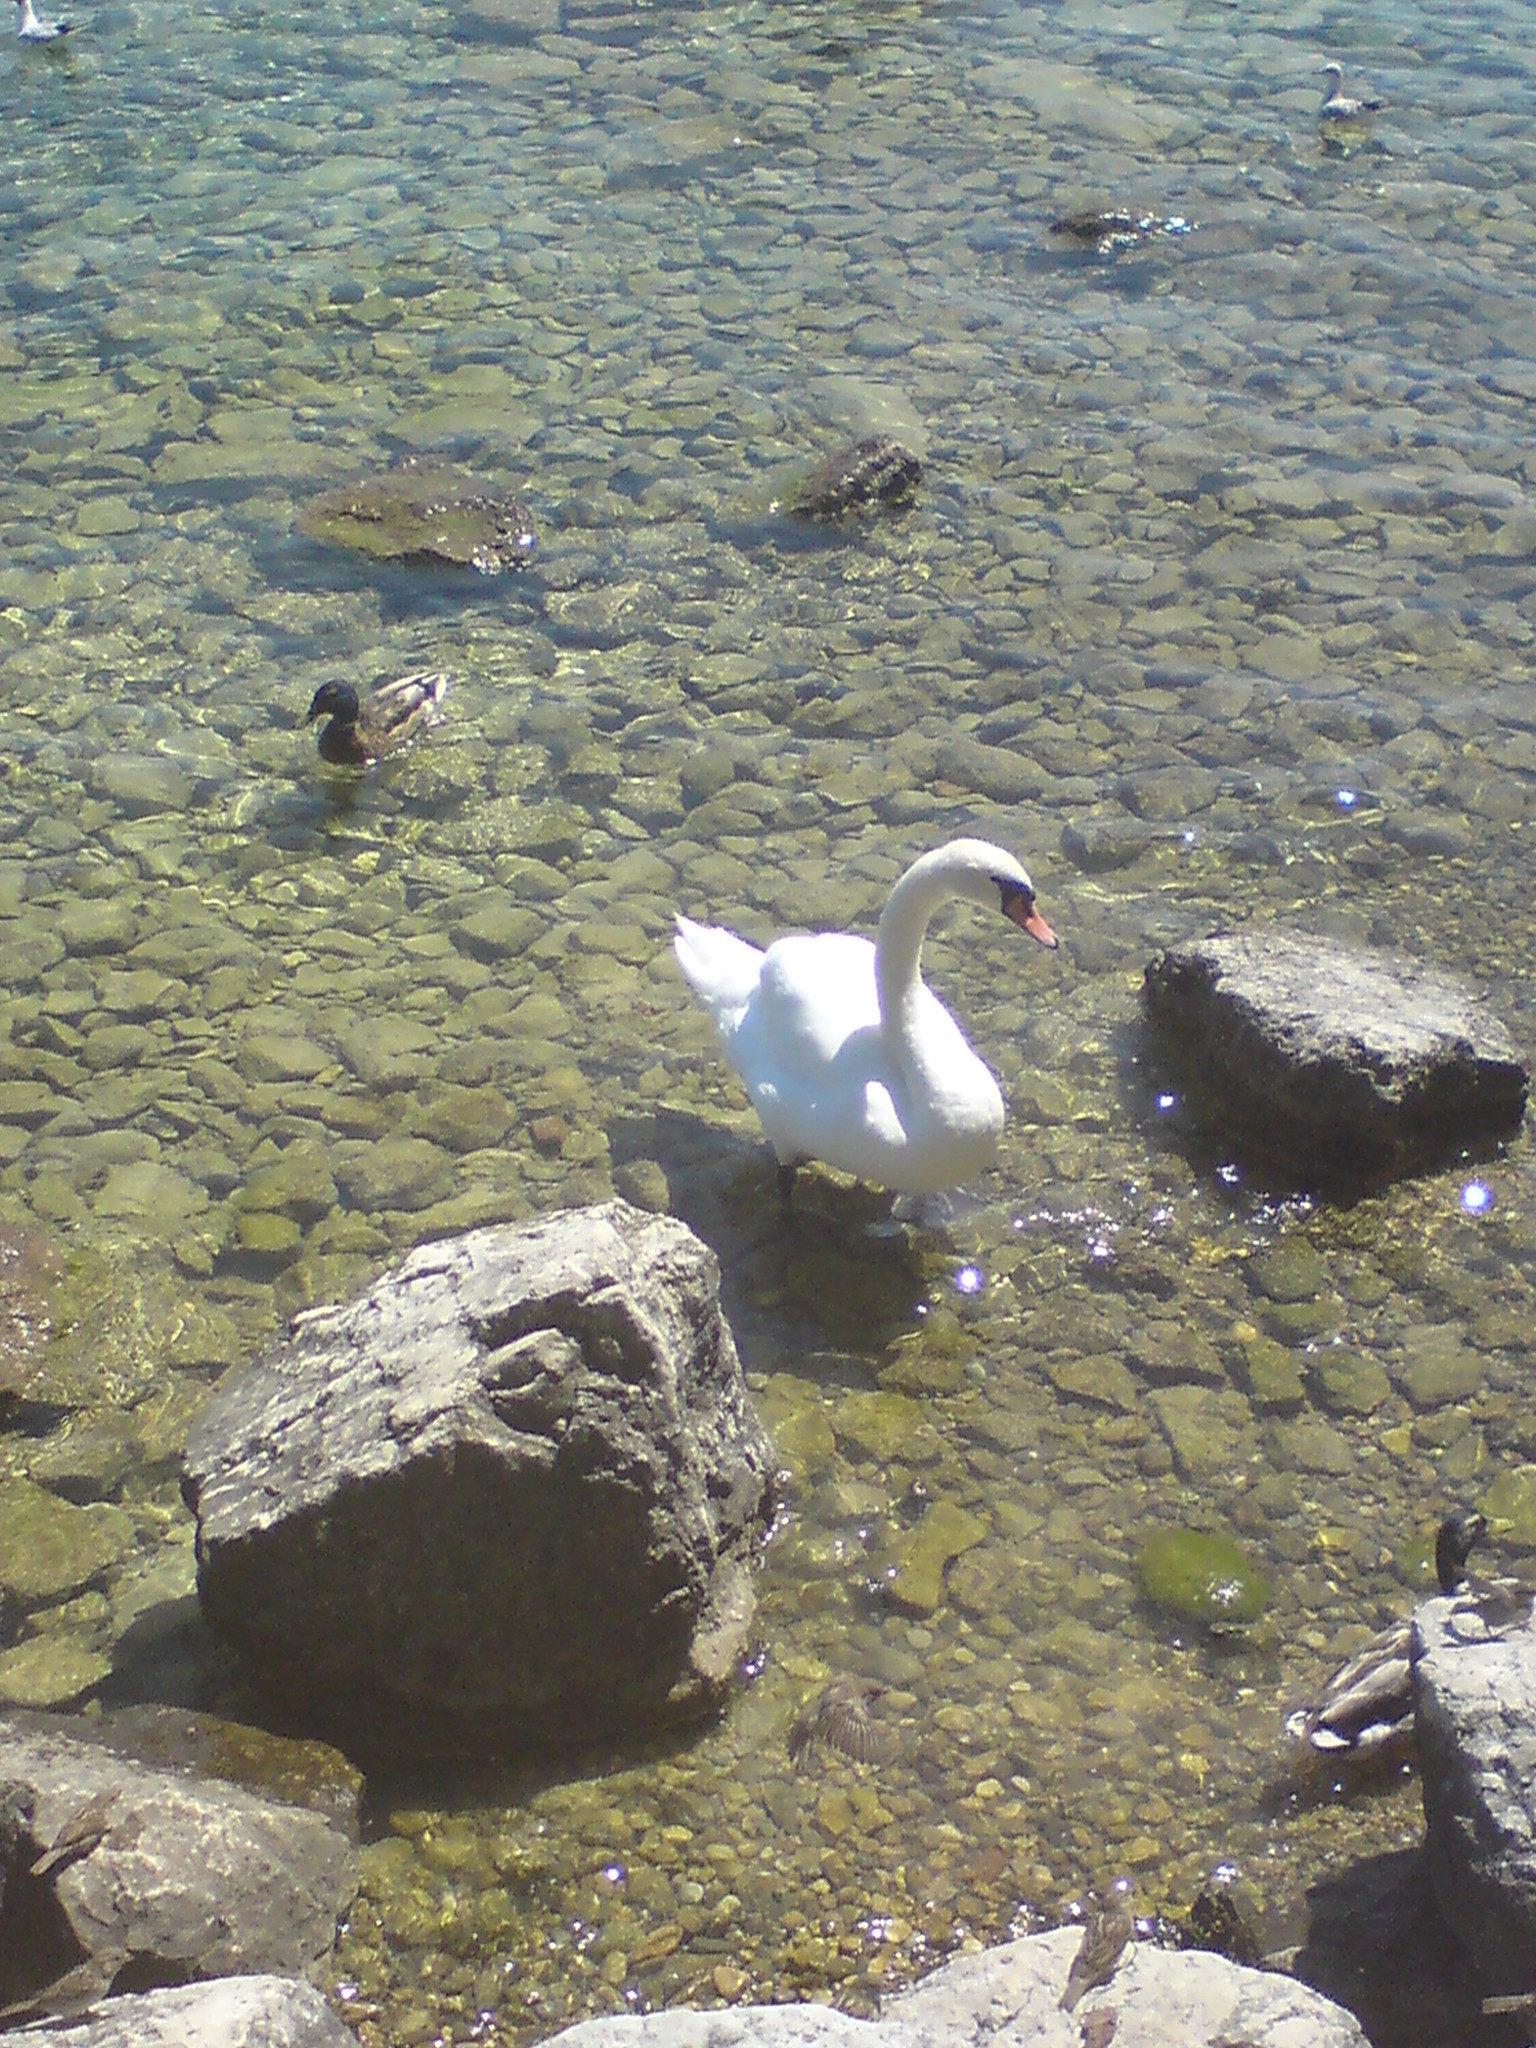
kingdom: Animalia
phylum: Chordata
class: Aves
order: Anseriformes
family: Anatidae
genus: Cygnus
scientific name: Cygnus olor
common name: Mute swan
